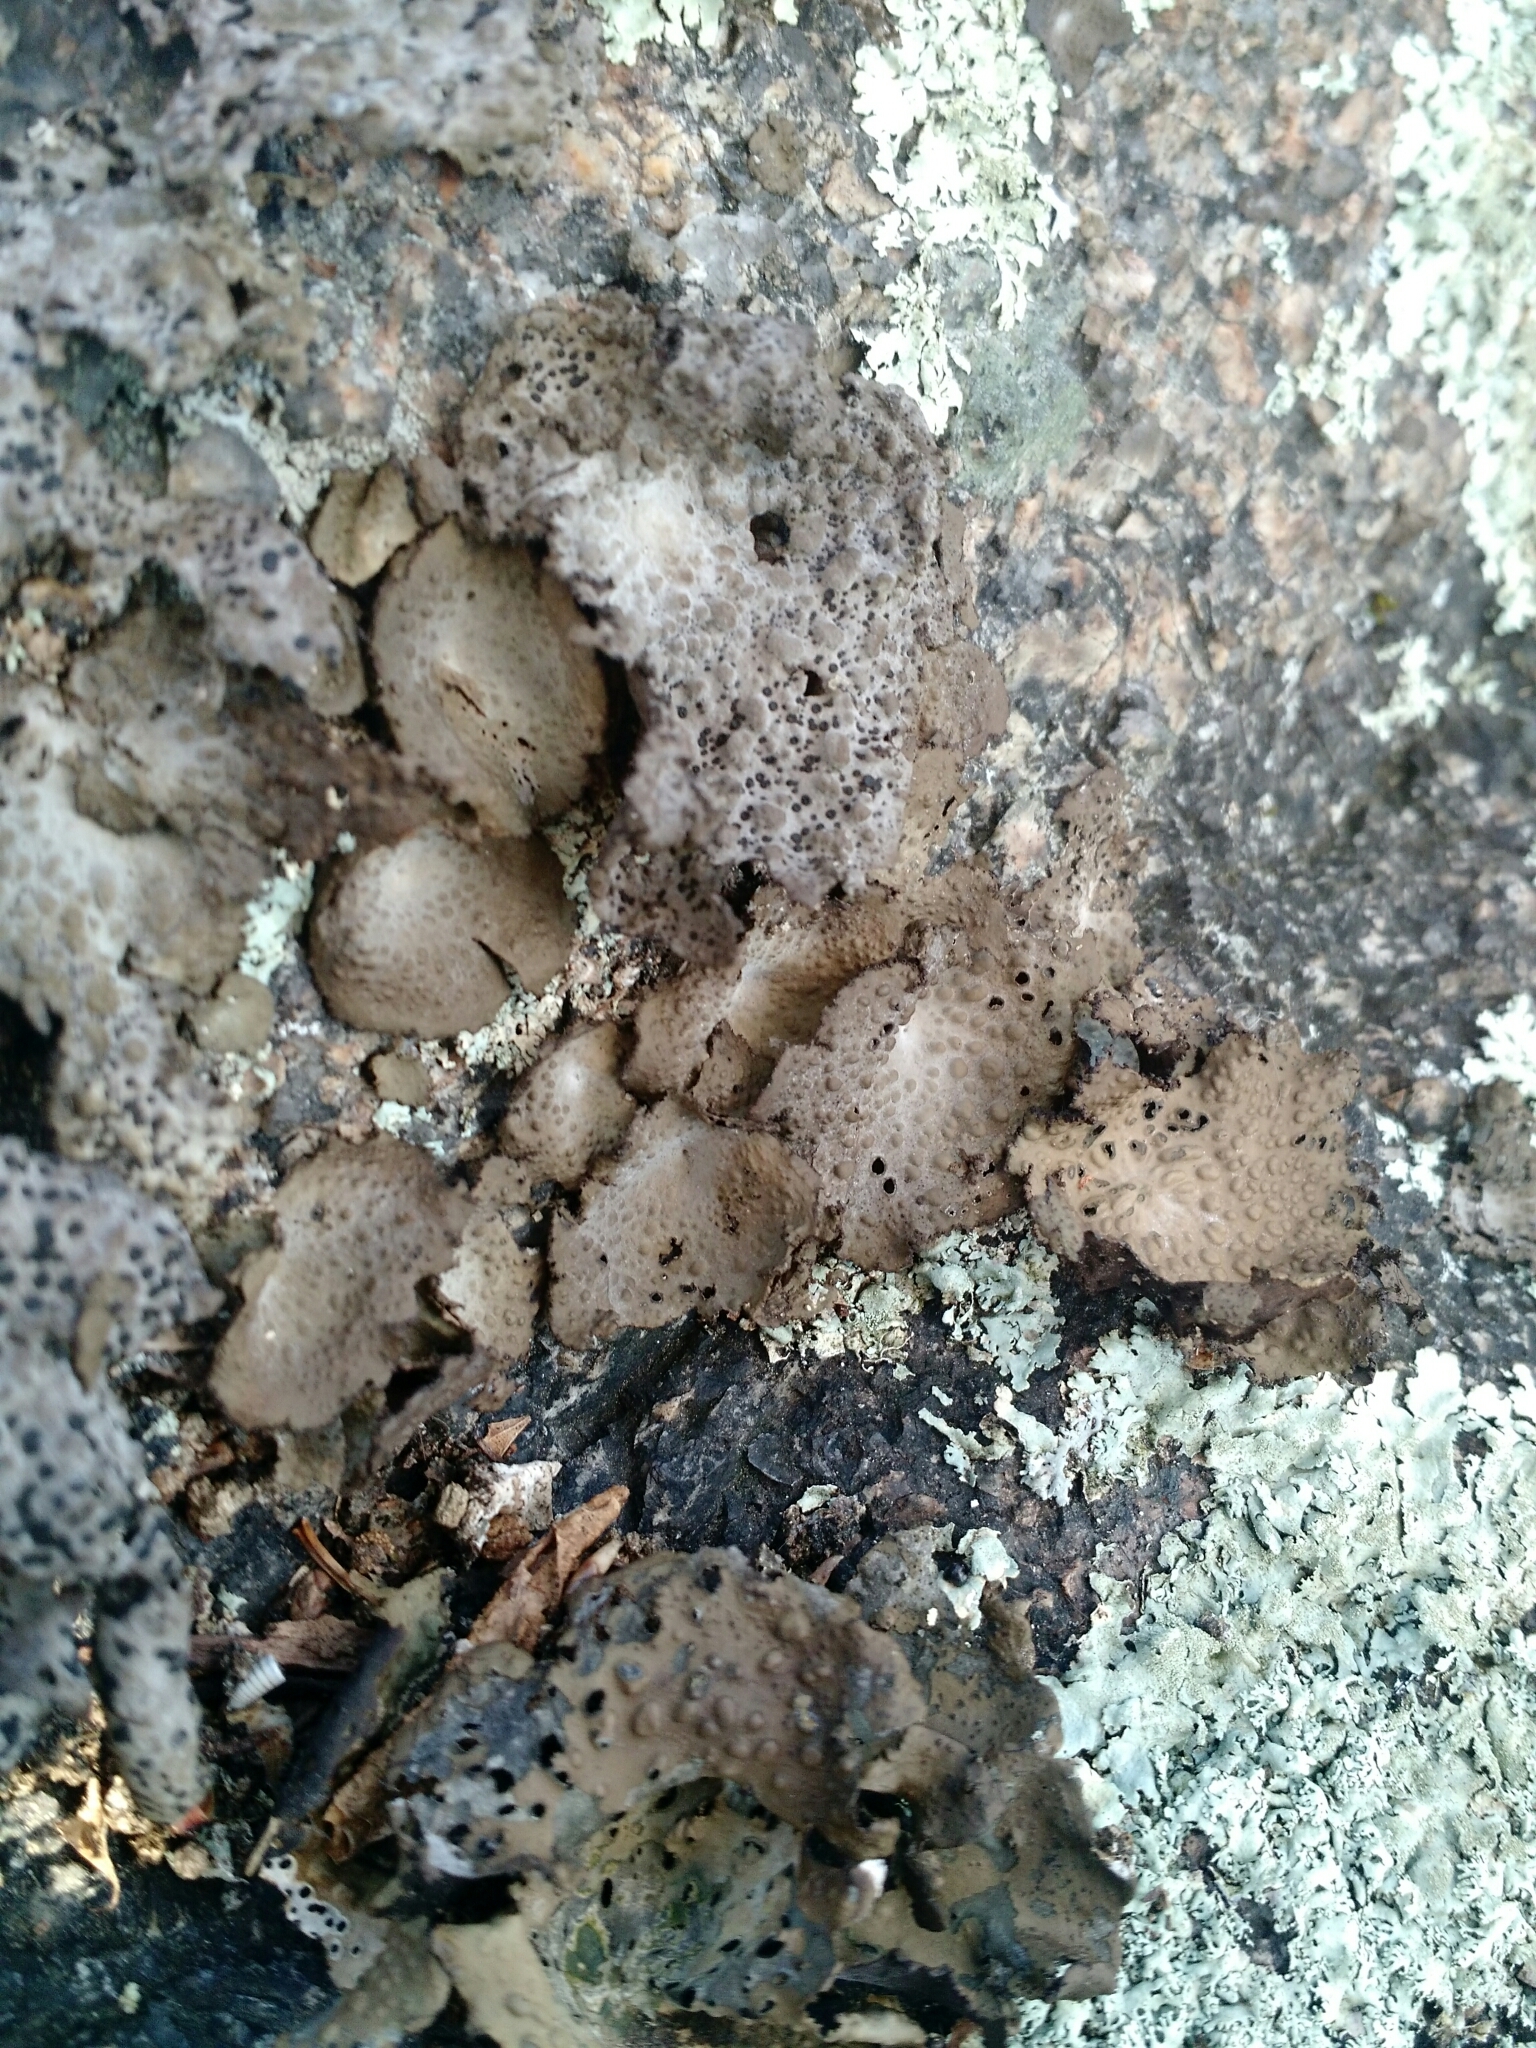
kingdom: Fungi
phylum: Ascomycota
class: Lecanoromycetes
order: Umbilicariales
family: Umbilicariaceae
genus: Umbilicaria
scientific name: Umbilicaria mammulata
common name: Smooth rock tripe
